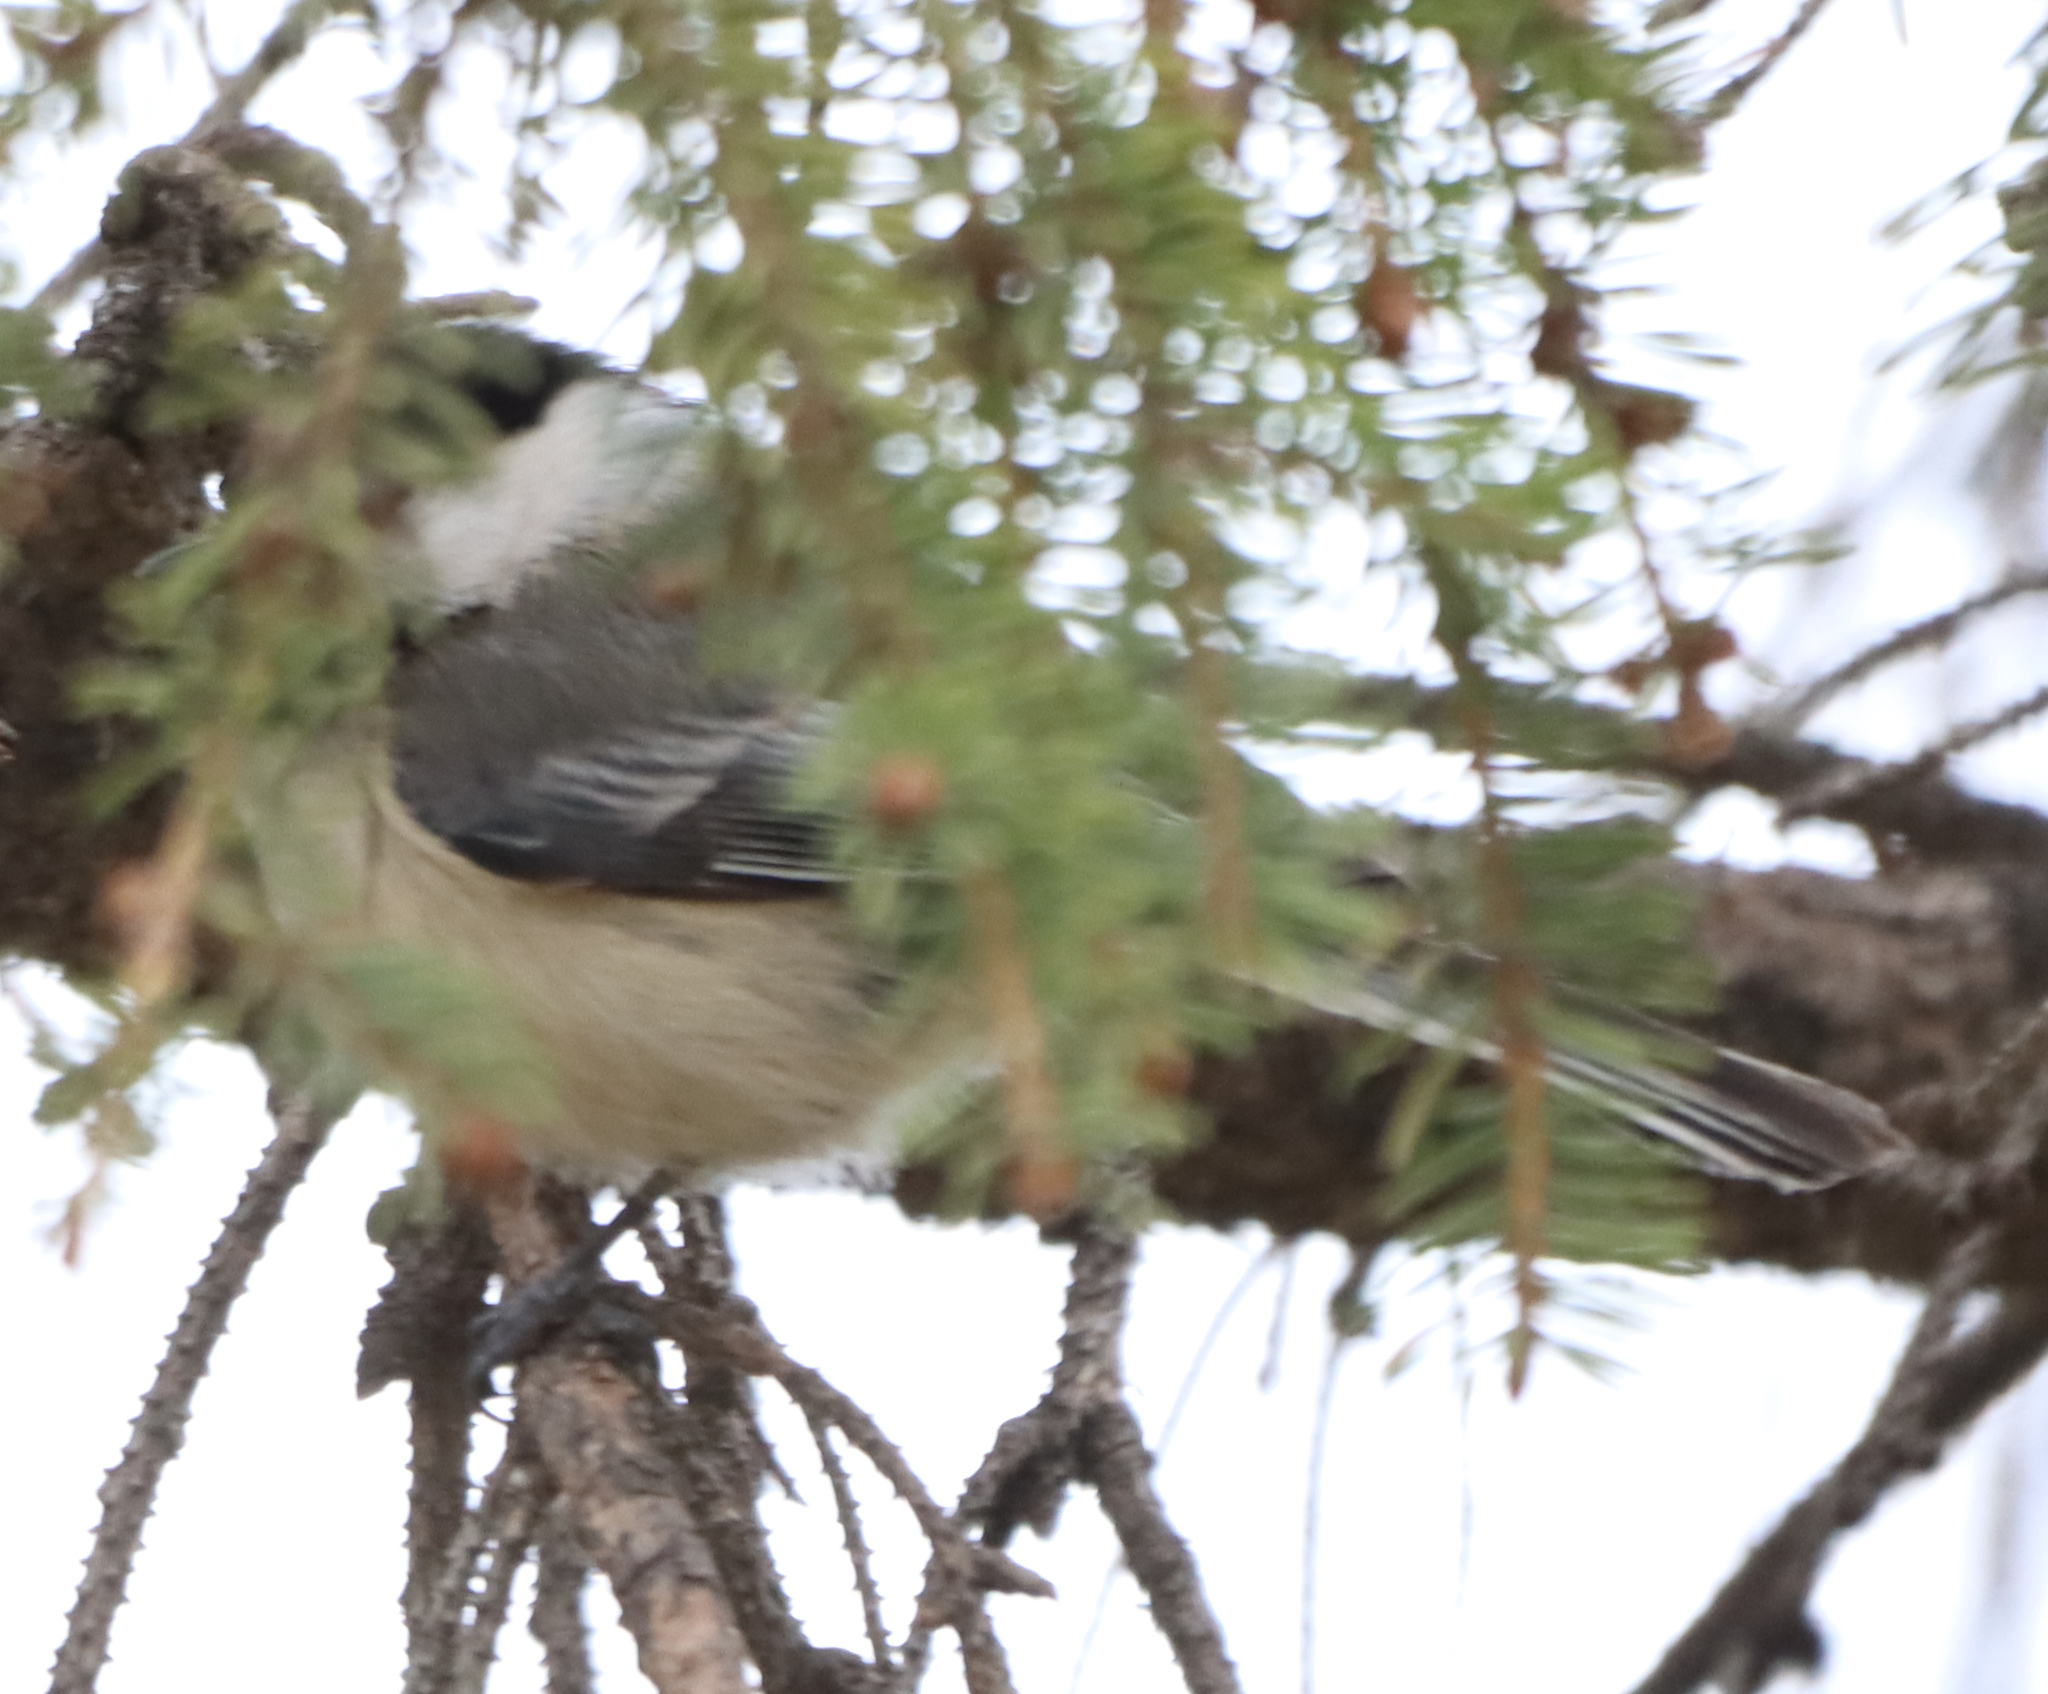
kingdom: Animalia
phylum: Chordata
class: Aves
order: Passeriformes
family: Paridae
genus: Poecile
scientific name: Poecile atricapillus
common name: Black-capped chickadee
